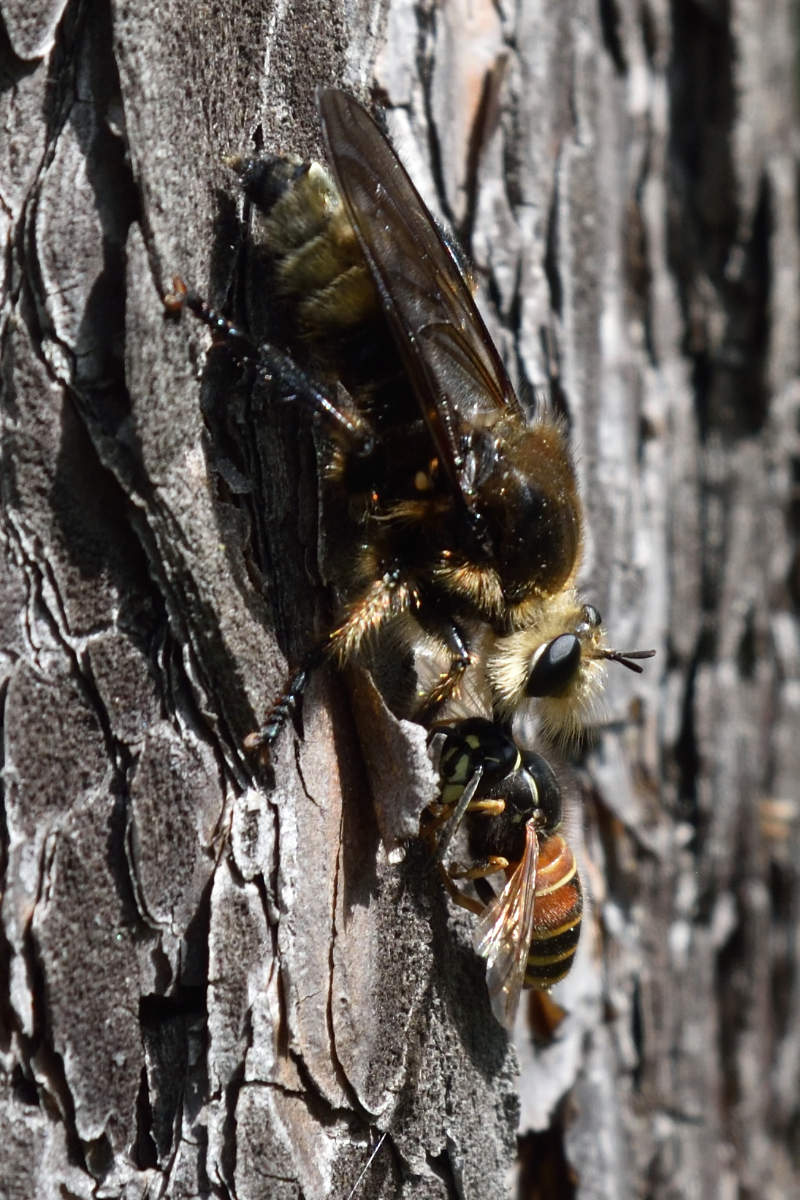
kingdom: Animalia
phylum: Arthropoda
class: Insecta
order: Diptera
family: Asilidae
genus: Laphria
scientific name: Laphria gibbosa
